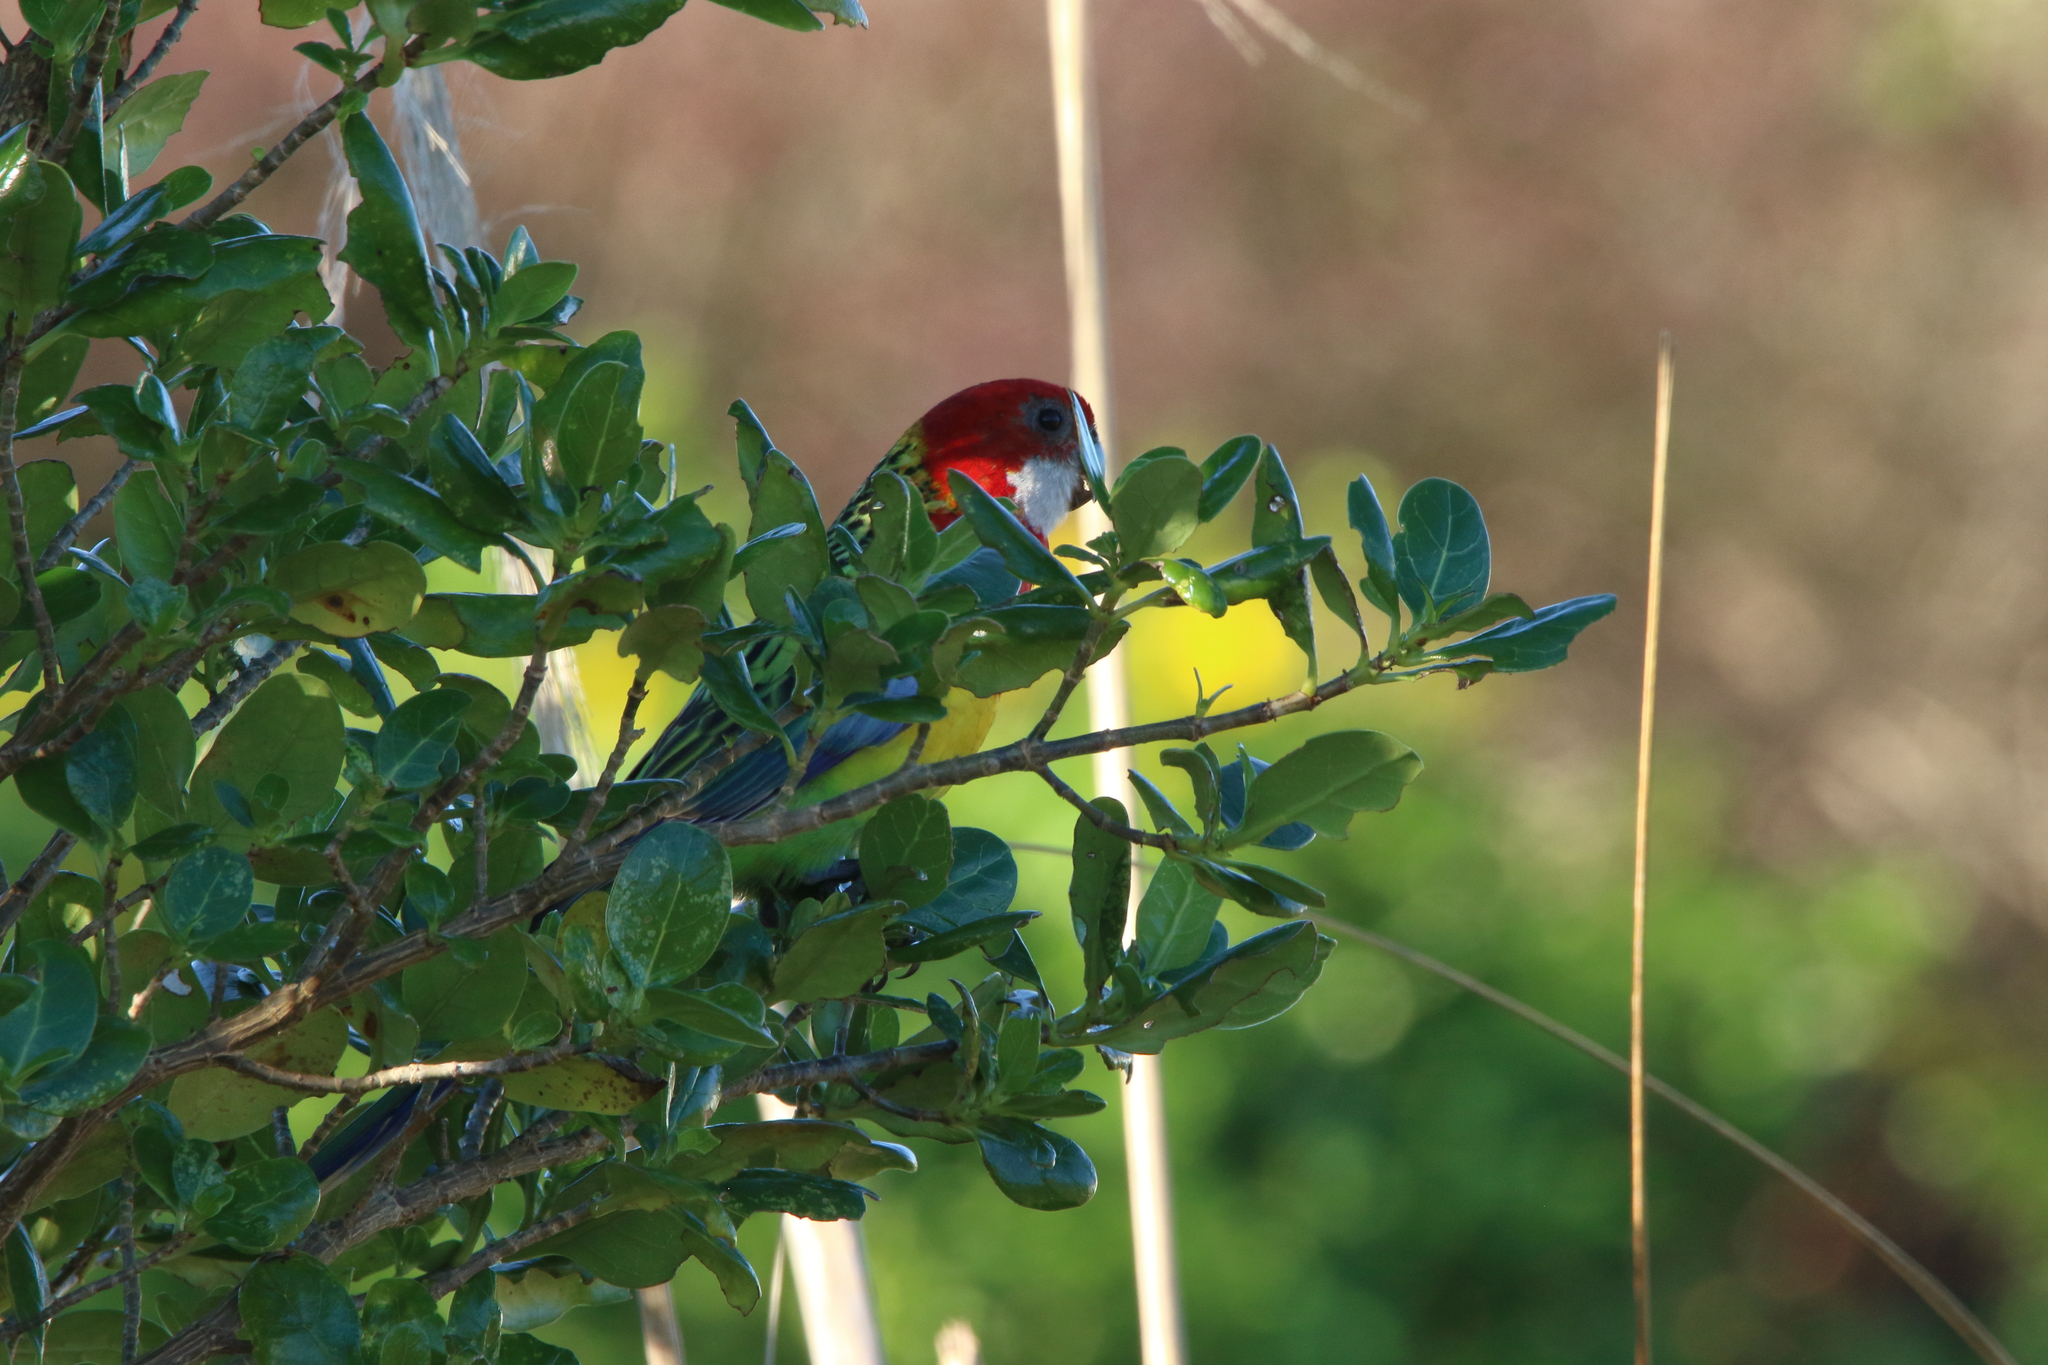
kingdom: Animalia
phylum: Chordata
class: Aves
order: Psittaciformes
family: Psittacidae
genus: Platycercus
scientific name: Platycercus eximius
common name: Eastern rosella
